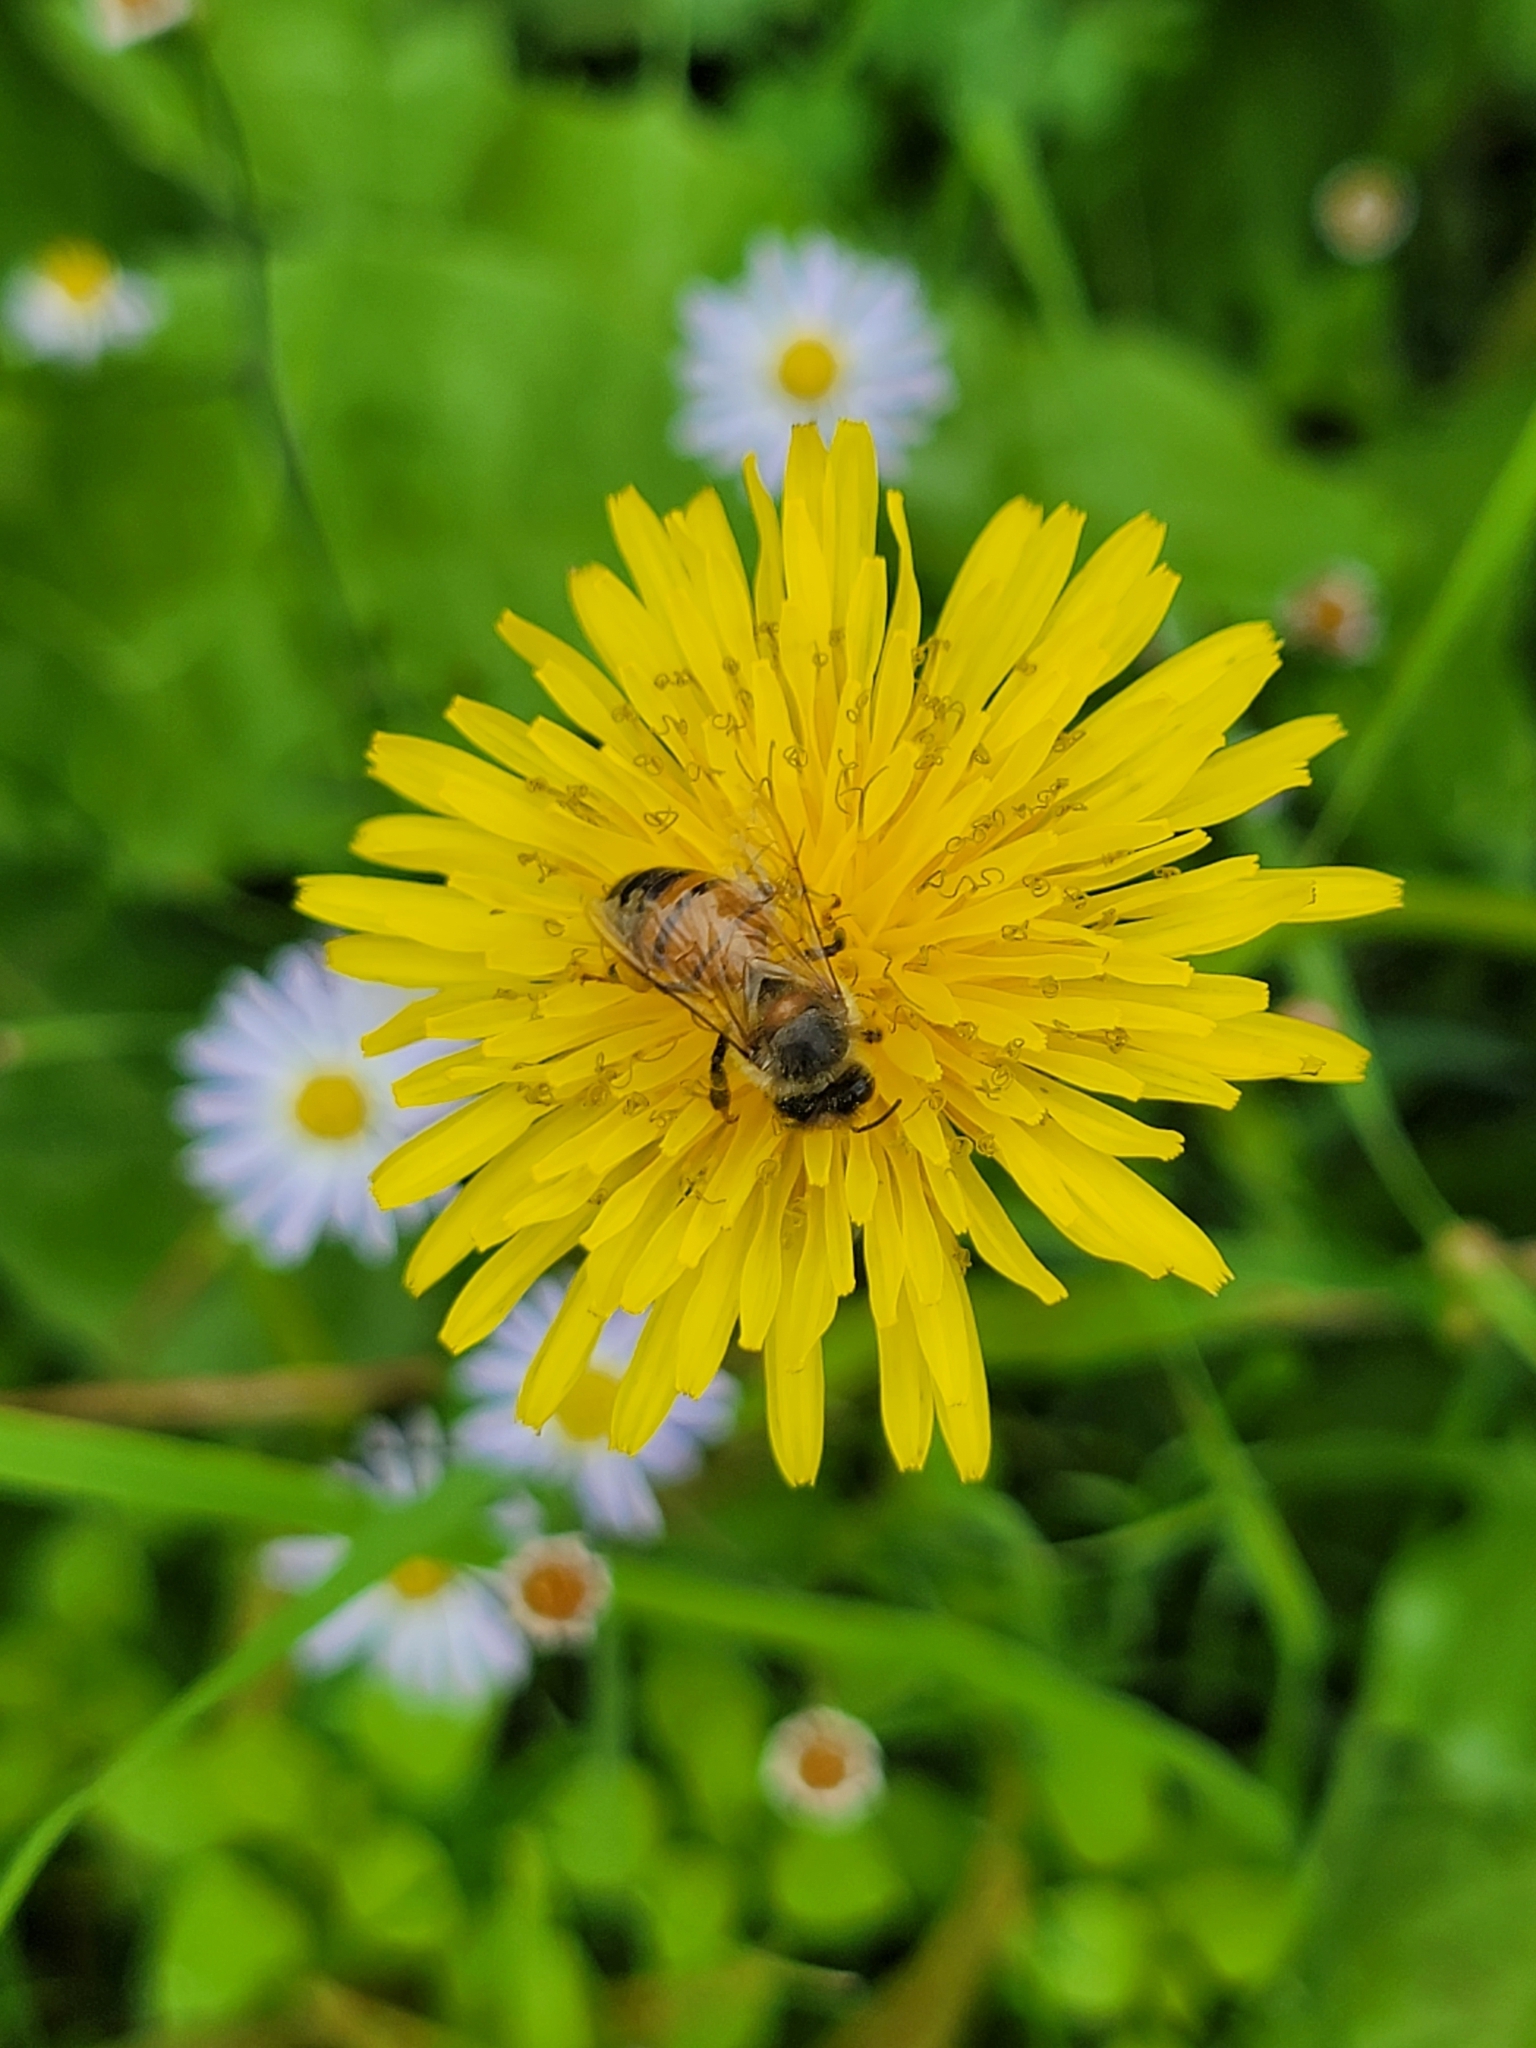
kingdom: Animalia
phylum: Arthropoda
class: Insecta
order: Hymenoptera
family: Apidae
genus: Apis
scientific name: Apis mellifera
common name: Honey bee
